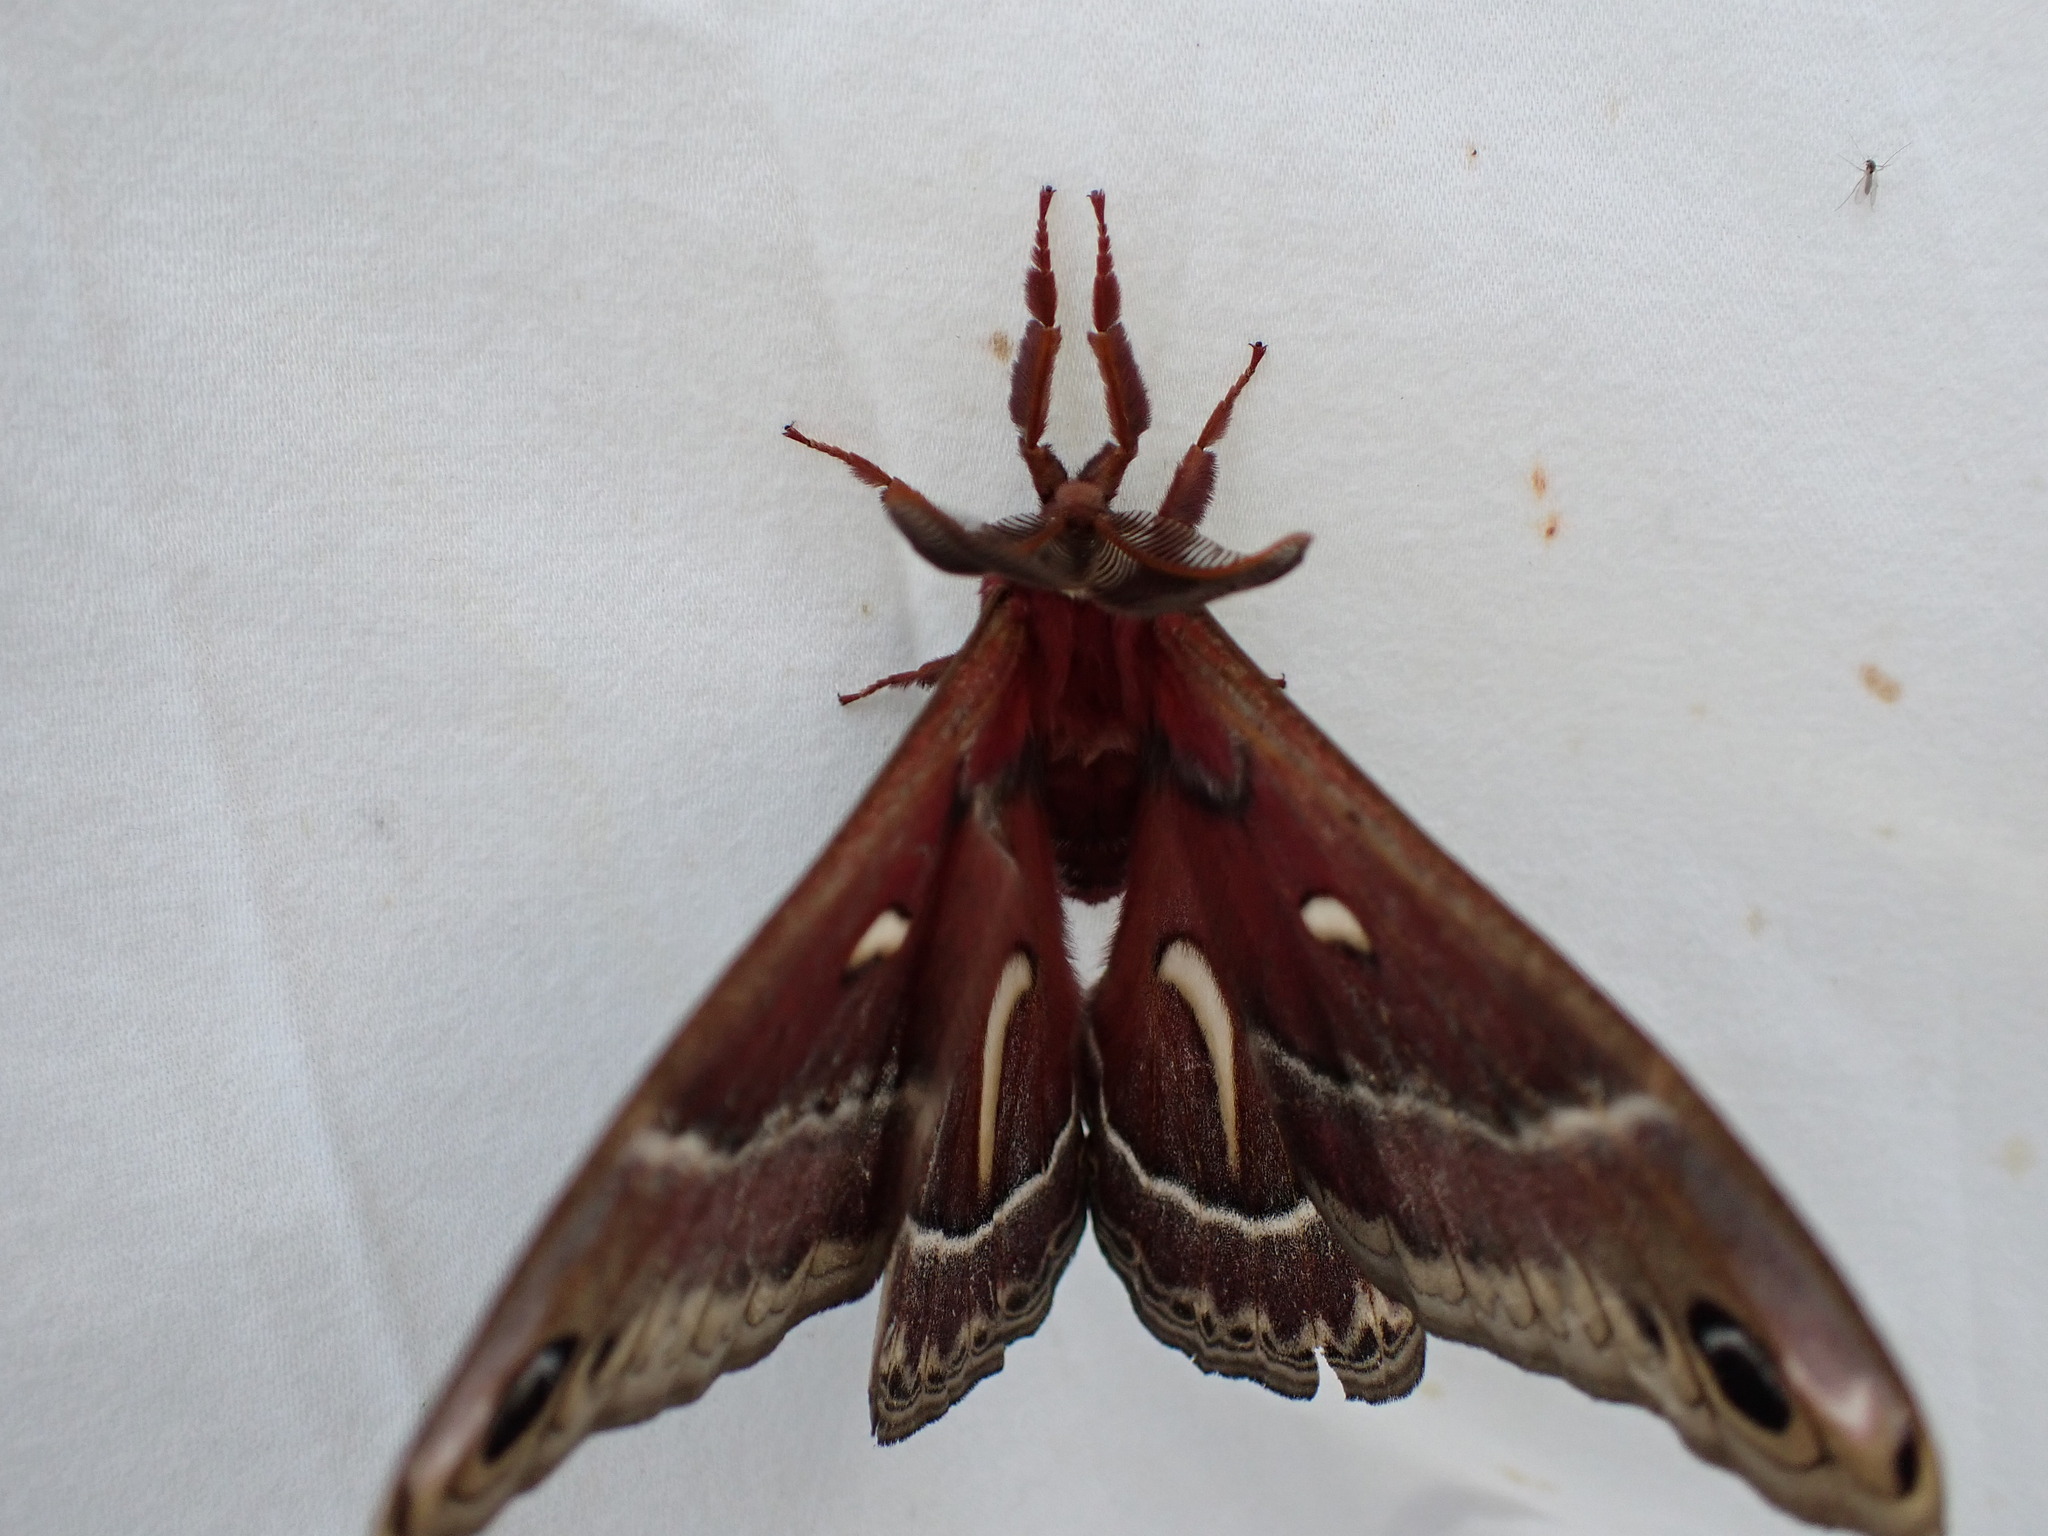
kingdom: Animalia
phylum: Arthropoda
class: Insecta
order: Lepidoptera
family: Saturniidae
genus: Hyalophora
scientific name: Hyalophora euryalus
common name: Ceanothus silkmoth
